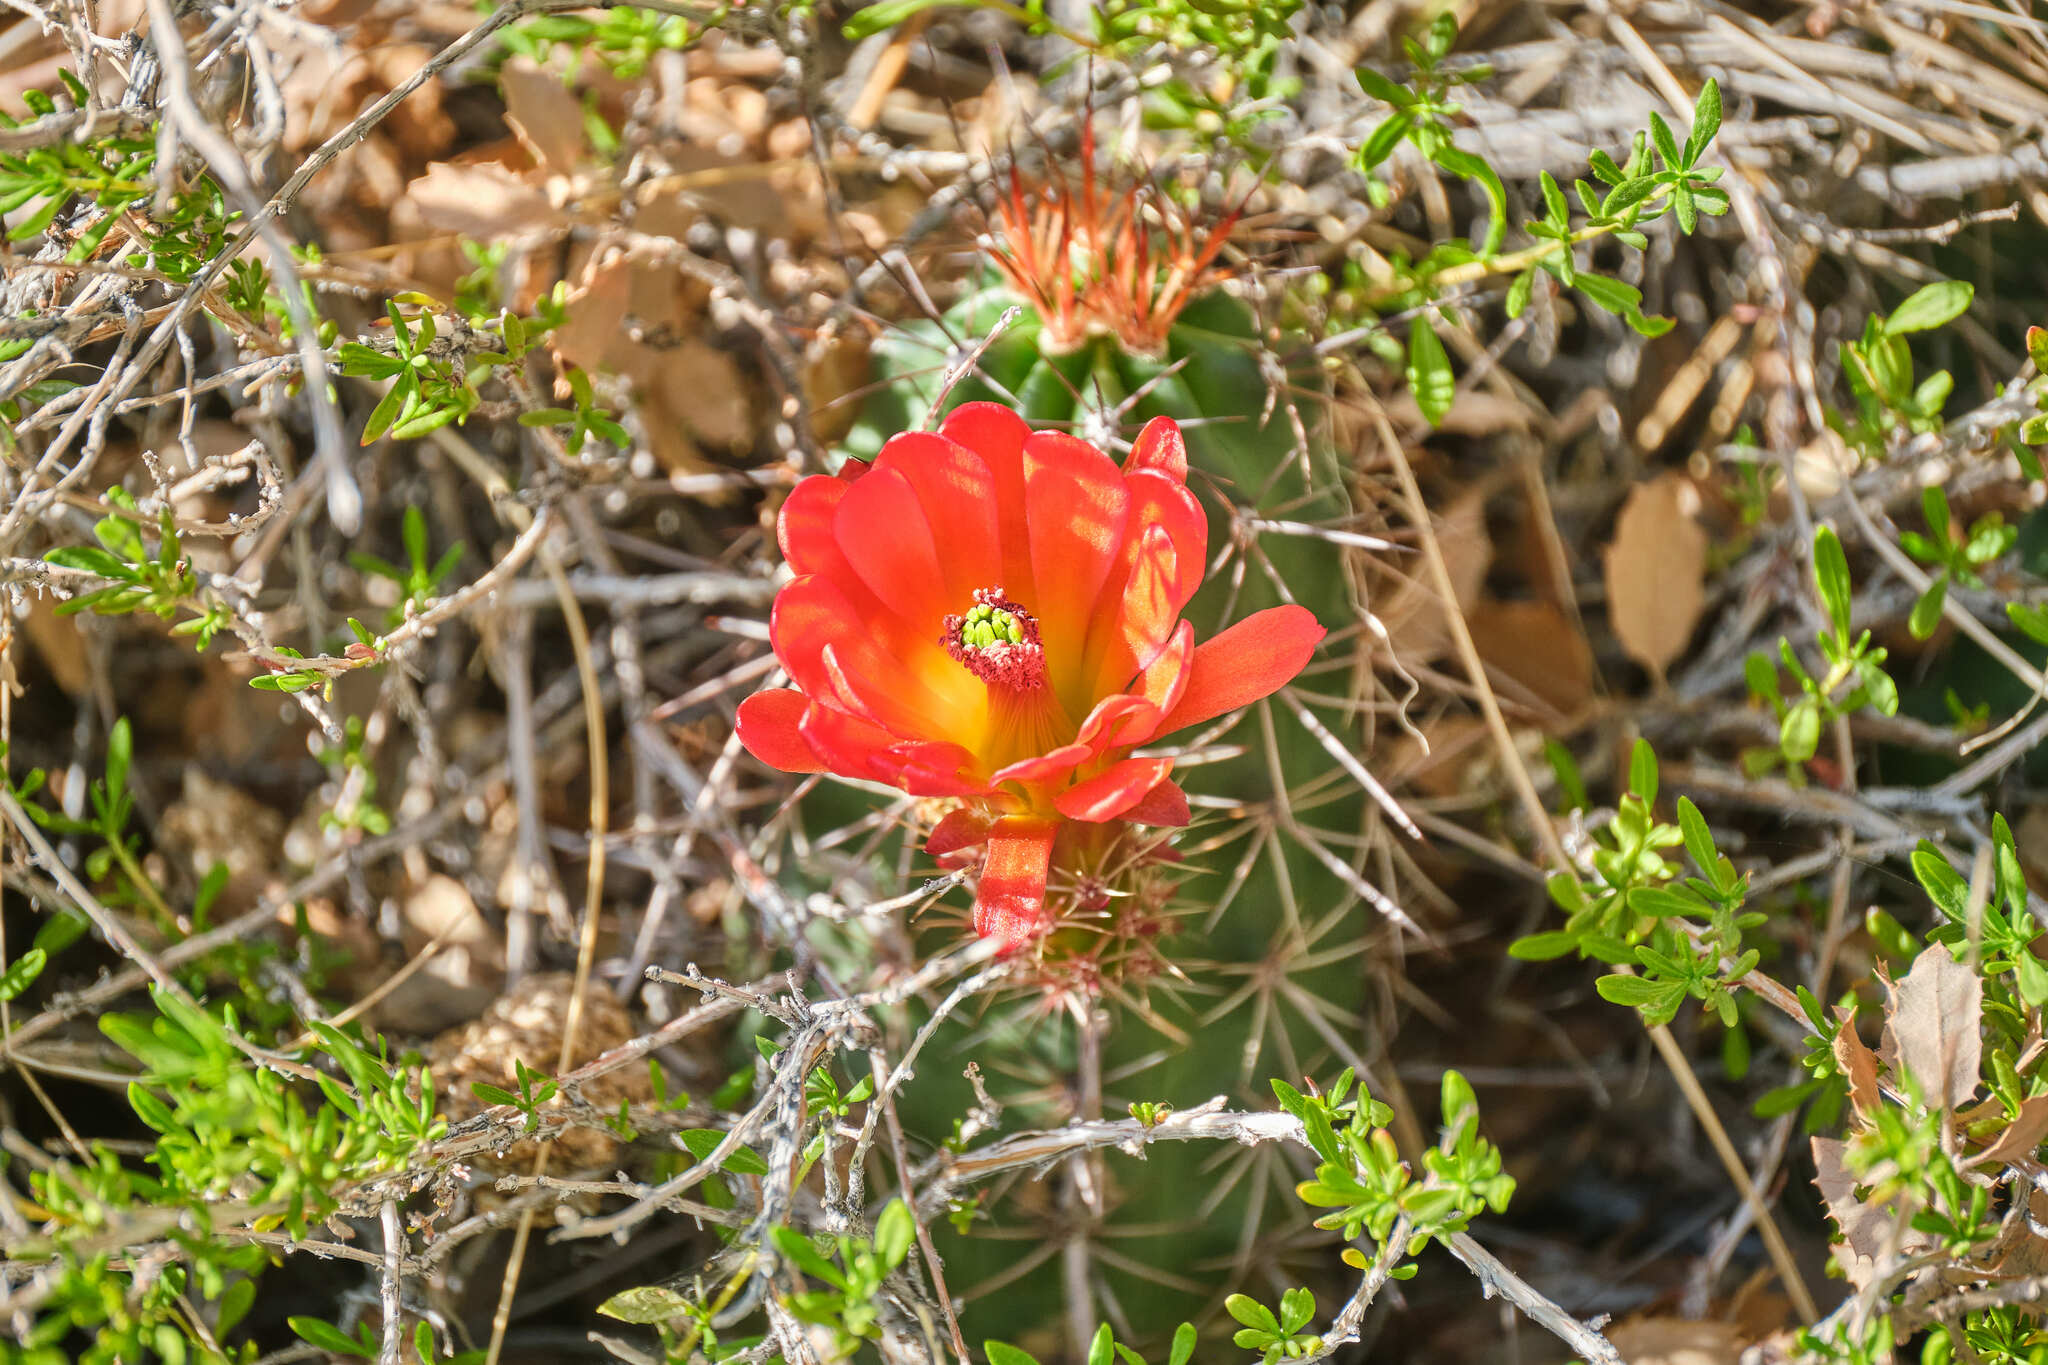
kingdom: Plantae
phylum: Tracheophyta
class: Magnoliopsida
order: Caryophyllales
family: Cactaceae
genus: Echinocereus
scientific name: Echinocereus triglochidiatus
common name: Claretcup hedgehog
